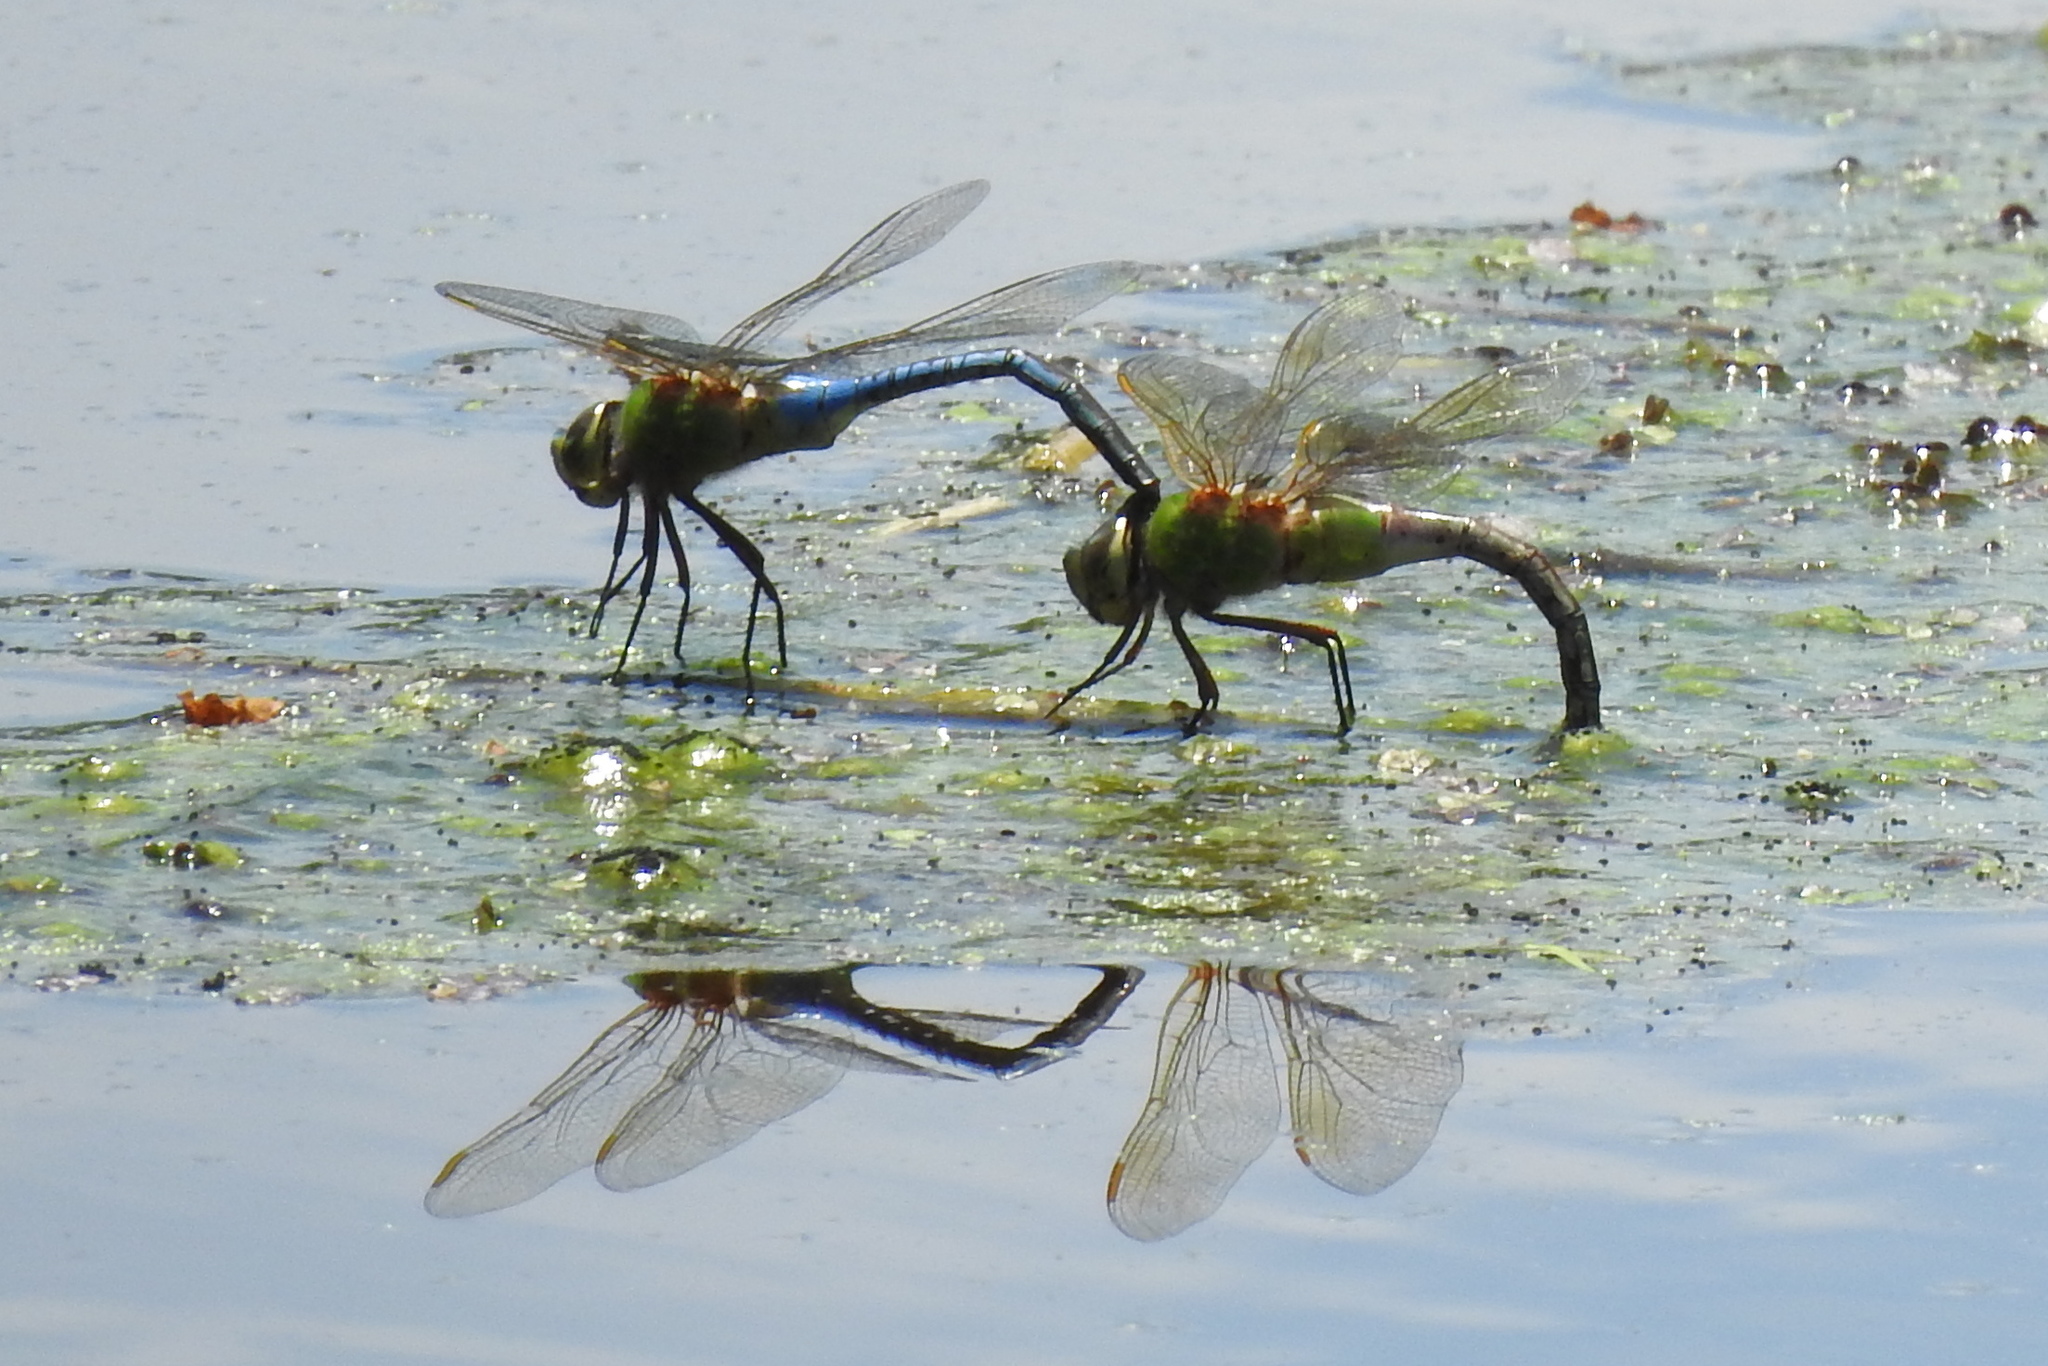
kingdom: Animalia
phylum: Arthropoda
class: Insecta
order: Odonata
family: Aeshnidae
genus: Anax
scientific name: Anax junius
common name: Common green darner
